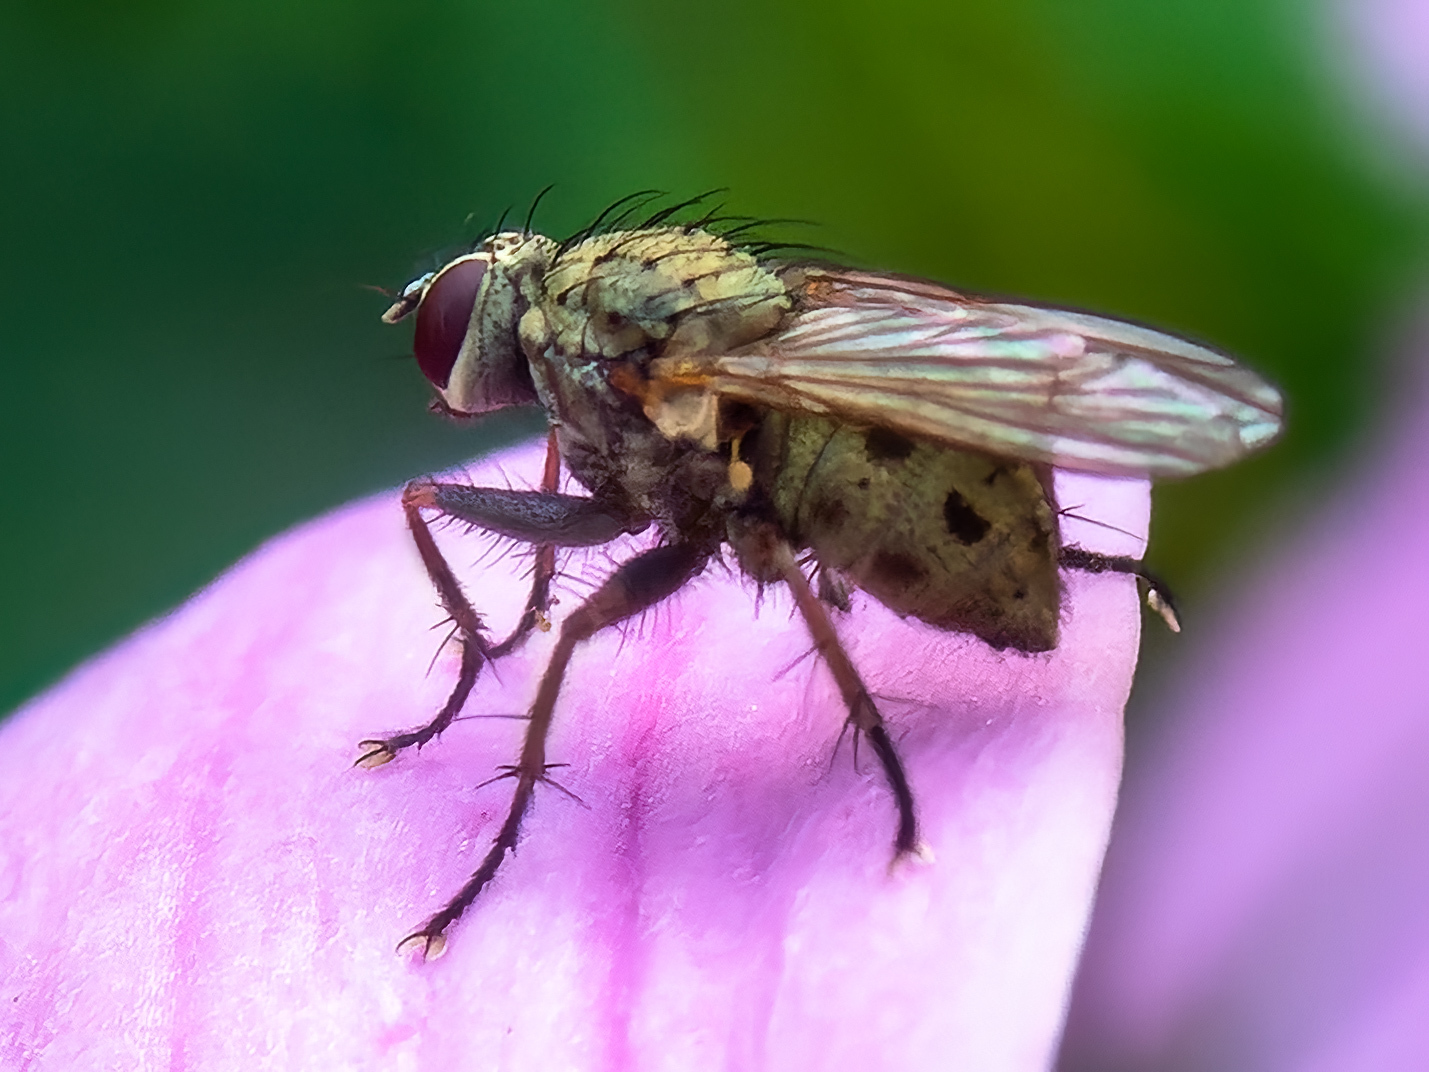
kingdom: Animalia
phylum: Arthropoda
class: Insecta
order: Diptera
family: Muscidae
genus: Coenosia
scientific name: Coenosia tigrina
